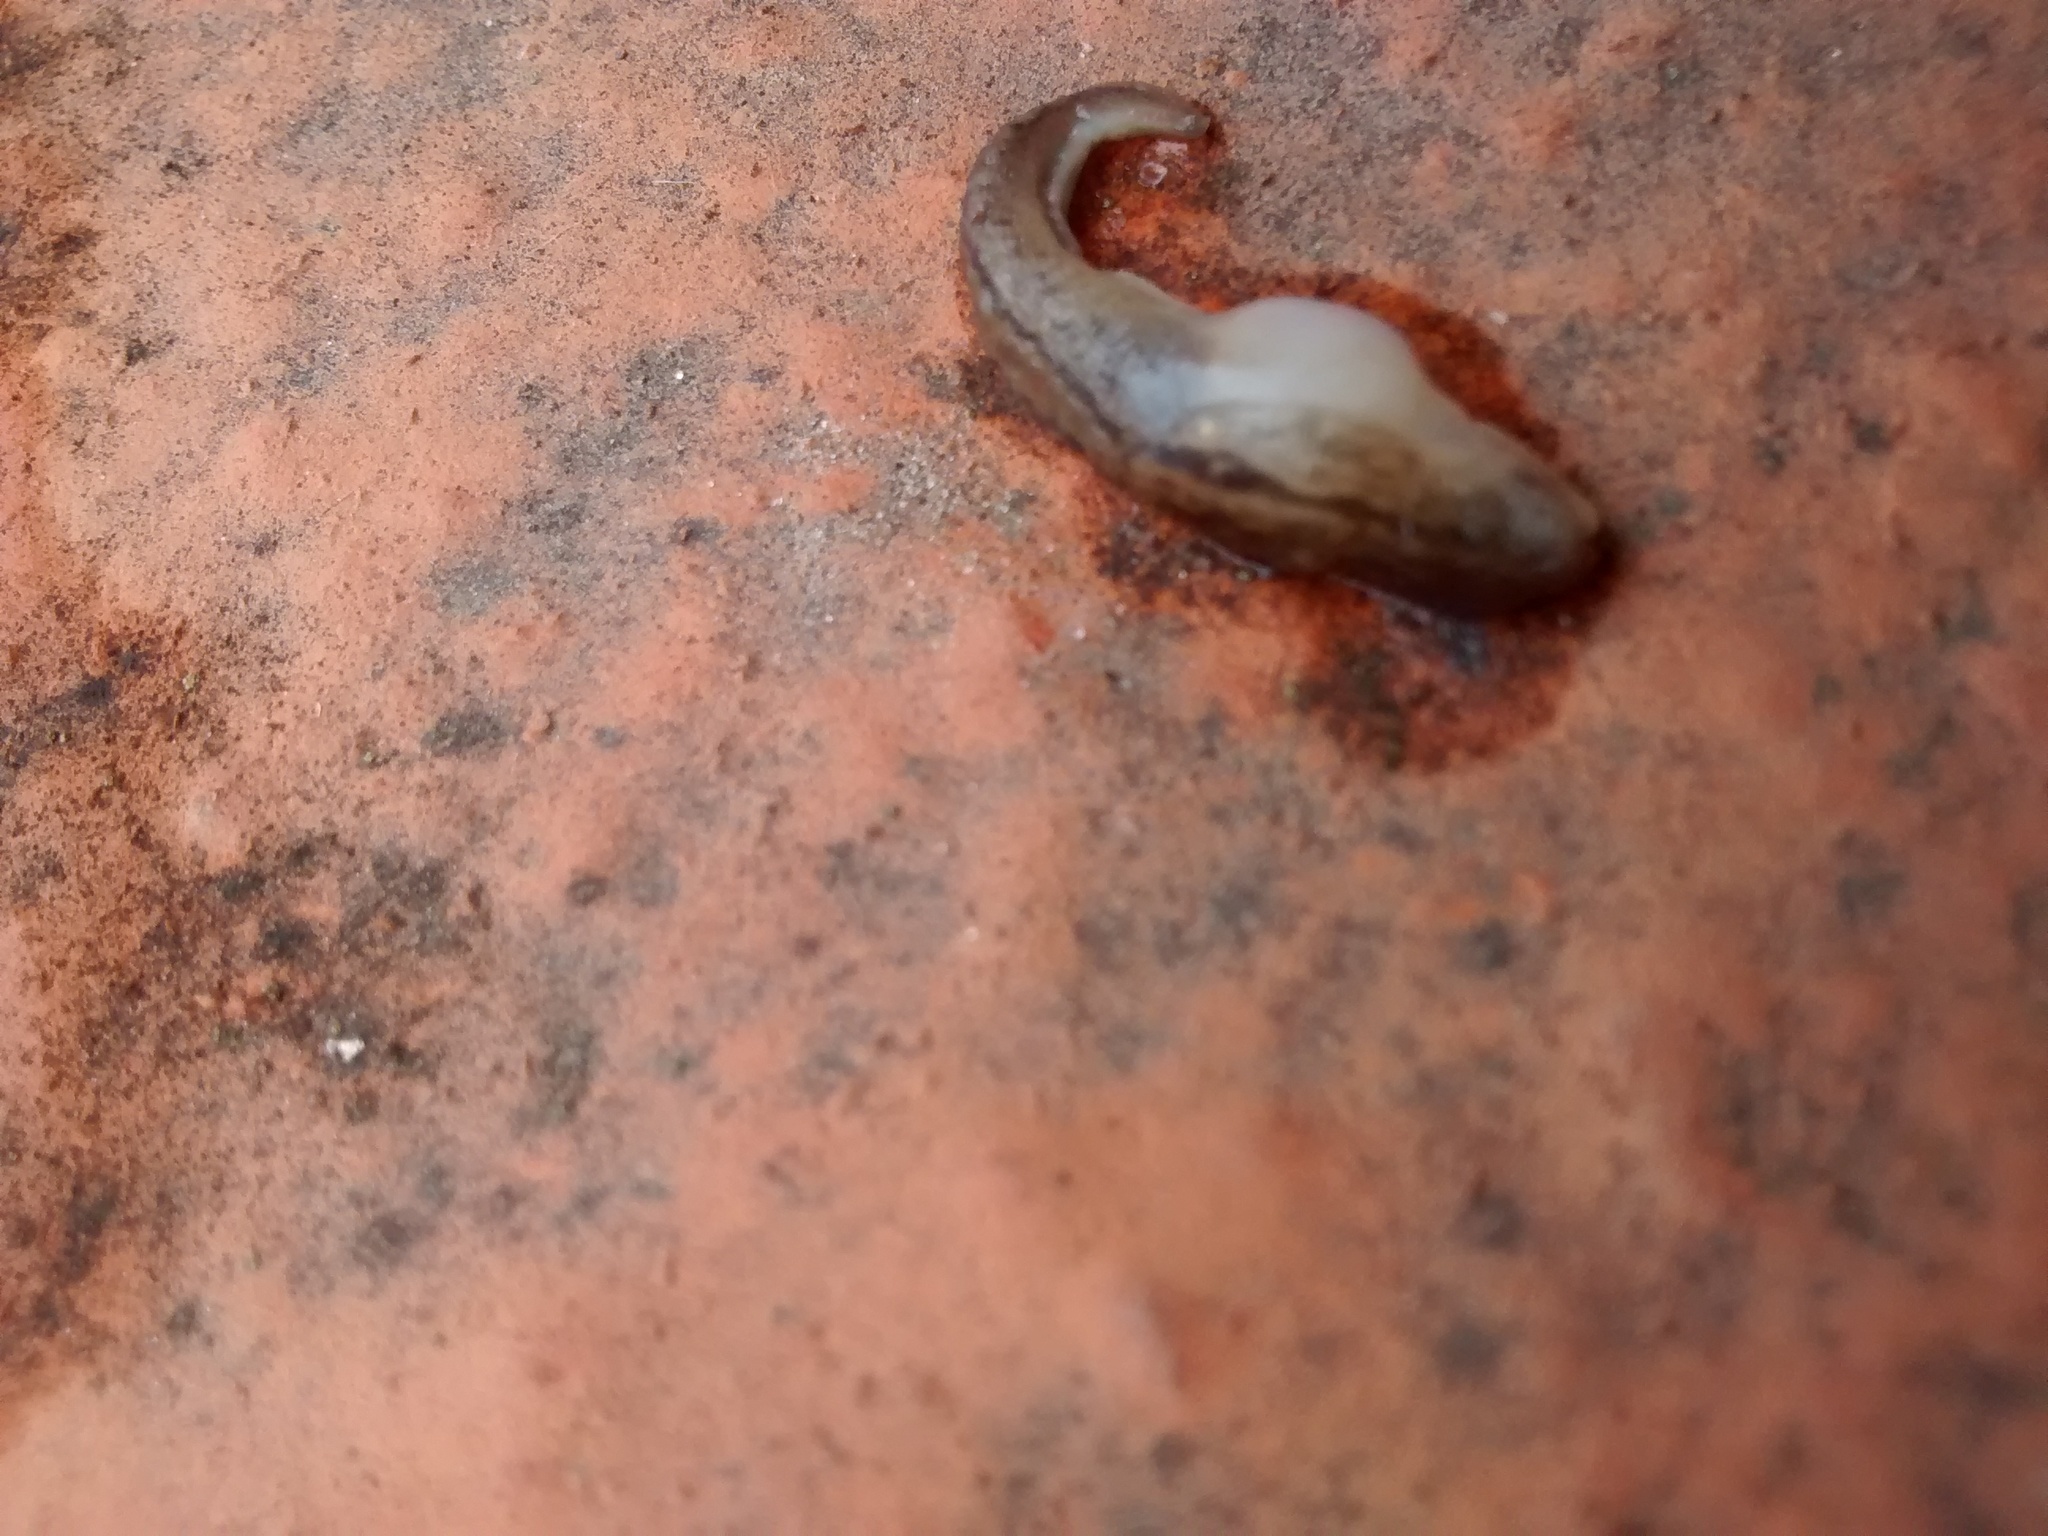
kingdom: Animalia
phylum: Mollusca
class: Gastropoda
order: Stylommatophora
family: Limacidae
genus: Ambigolimax
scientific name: Ambigolimax
